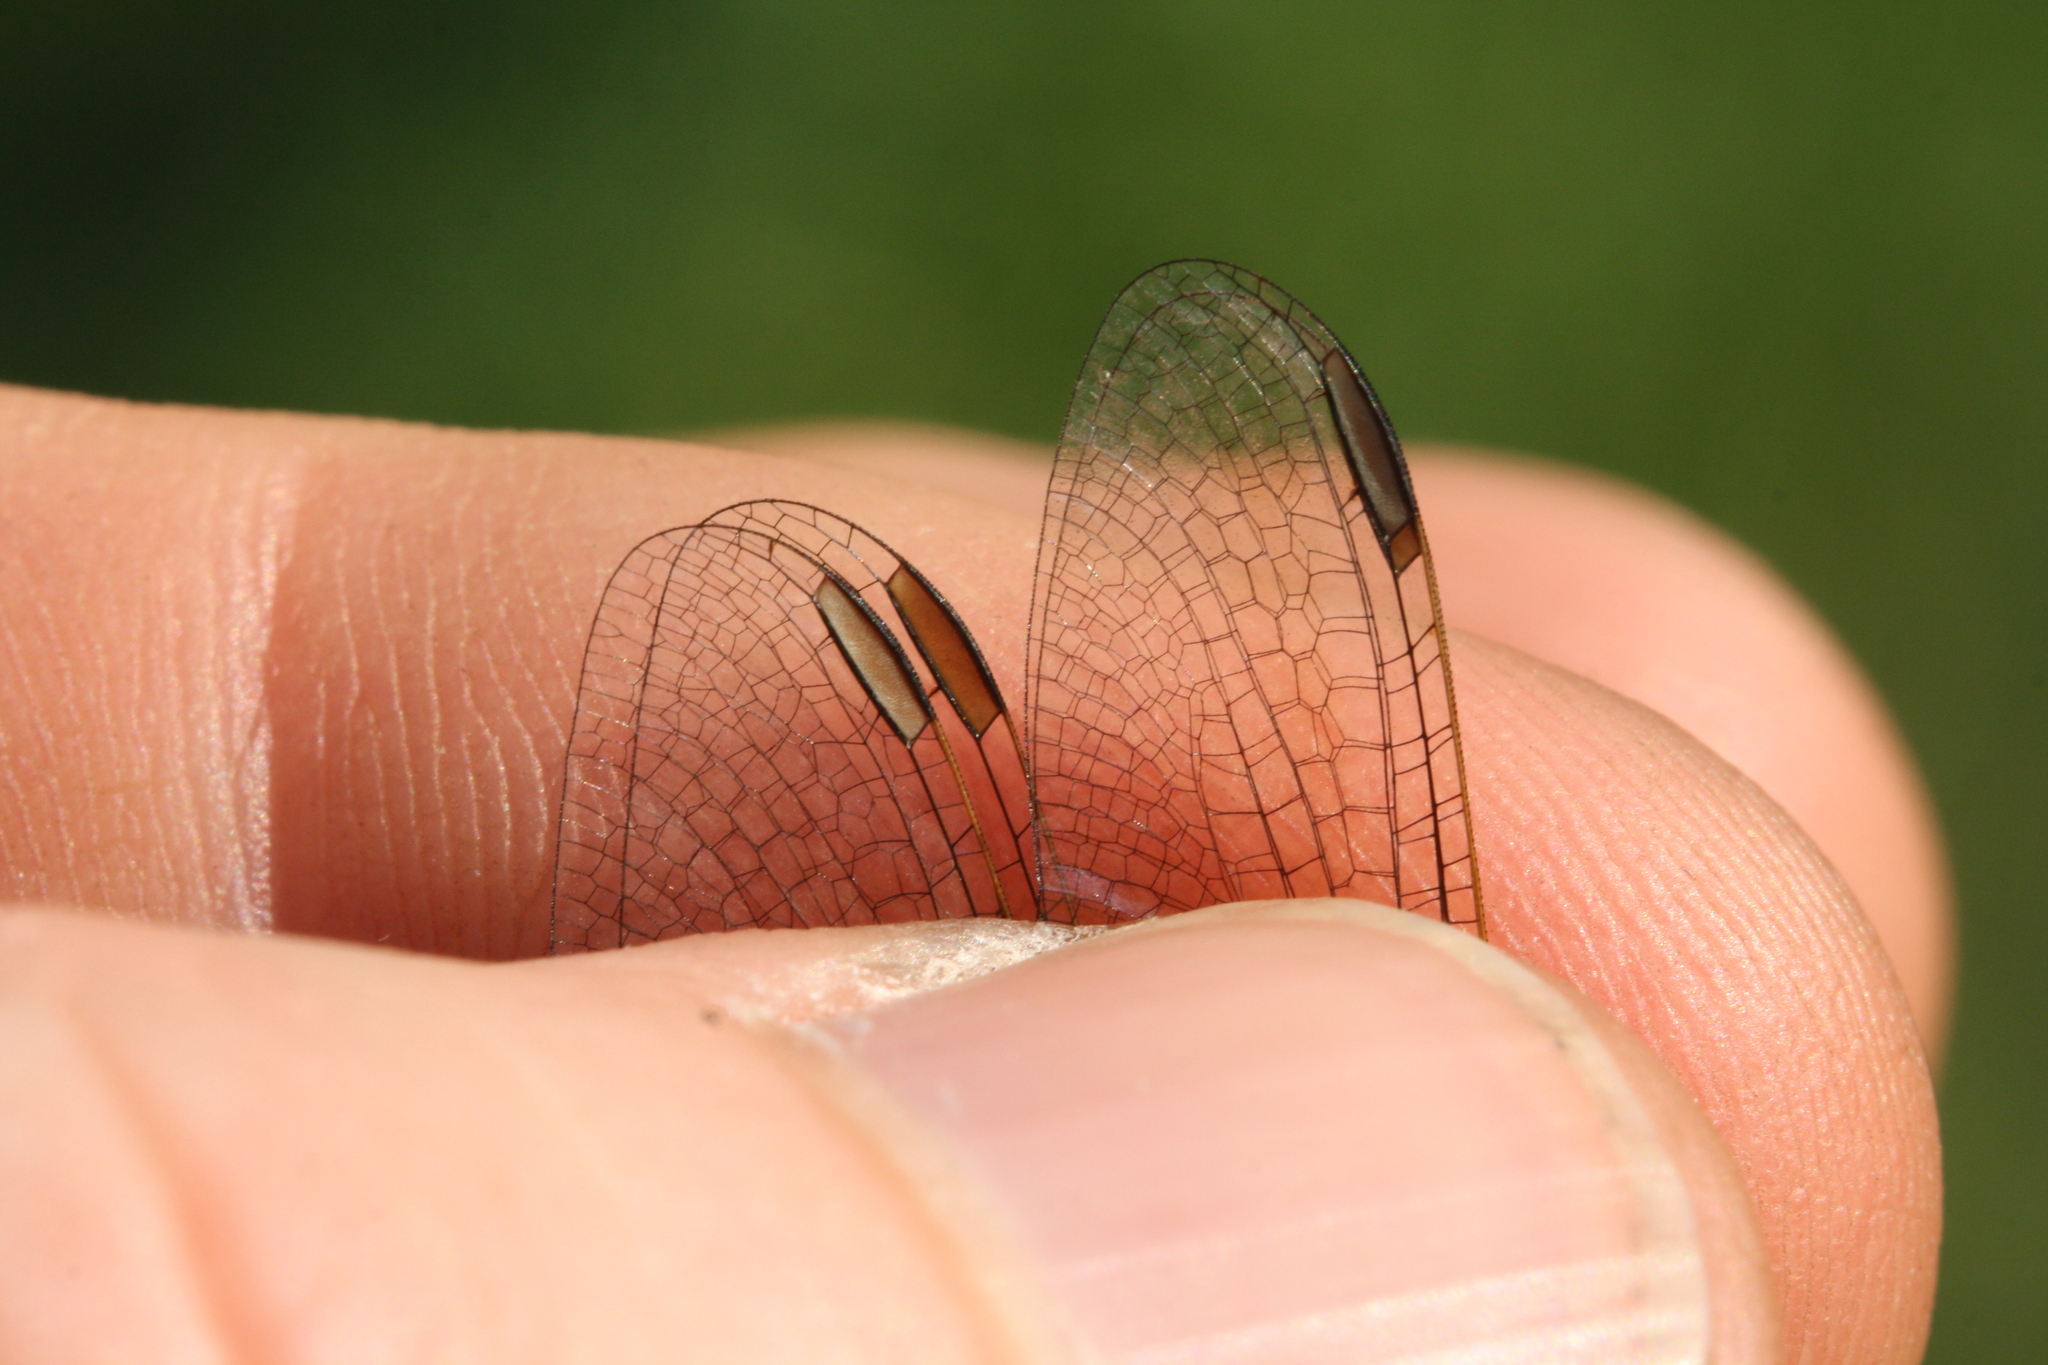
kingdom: Animalia
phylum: Arthropoda
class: Insecta
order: Odonata
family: Libellulidae
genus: Sympetrum
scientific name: Sympetrum meridionale
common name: Southern darter
